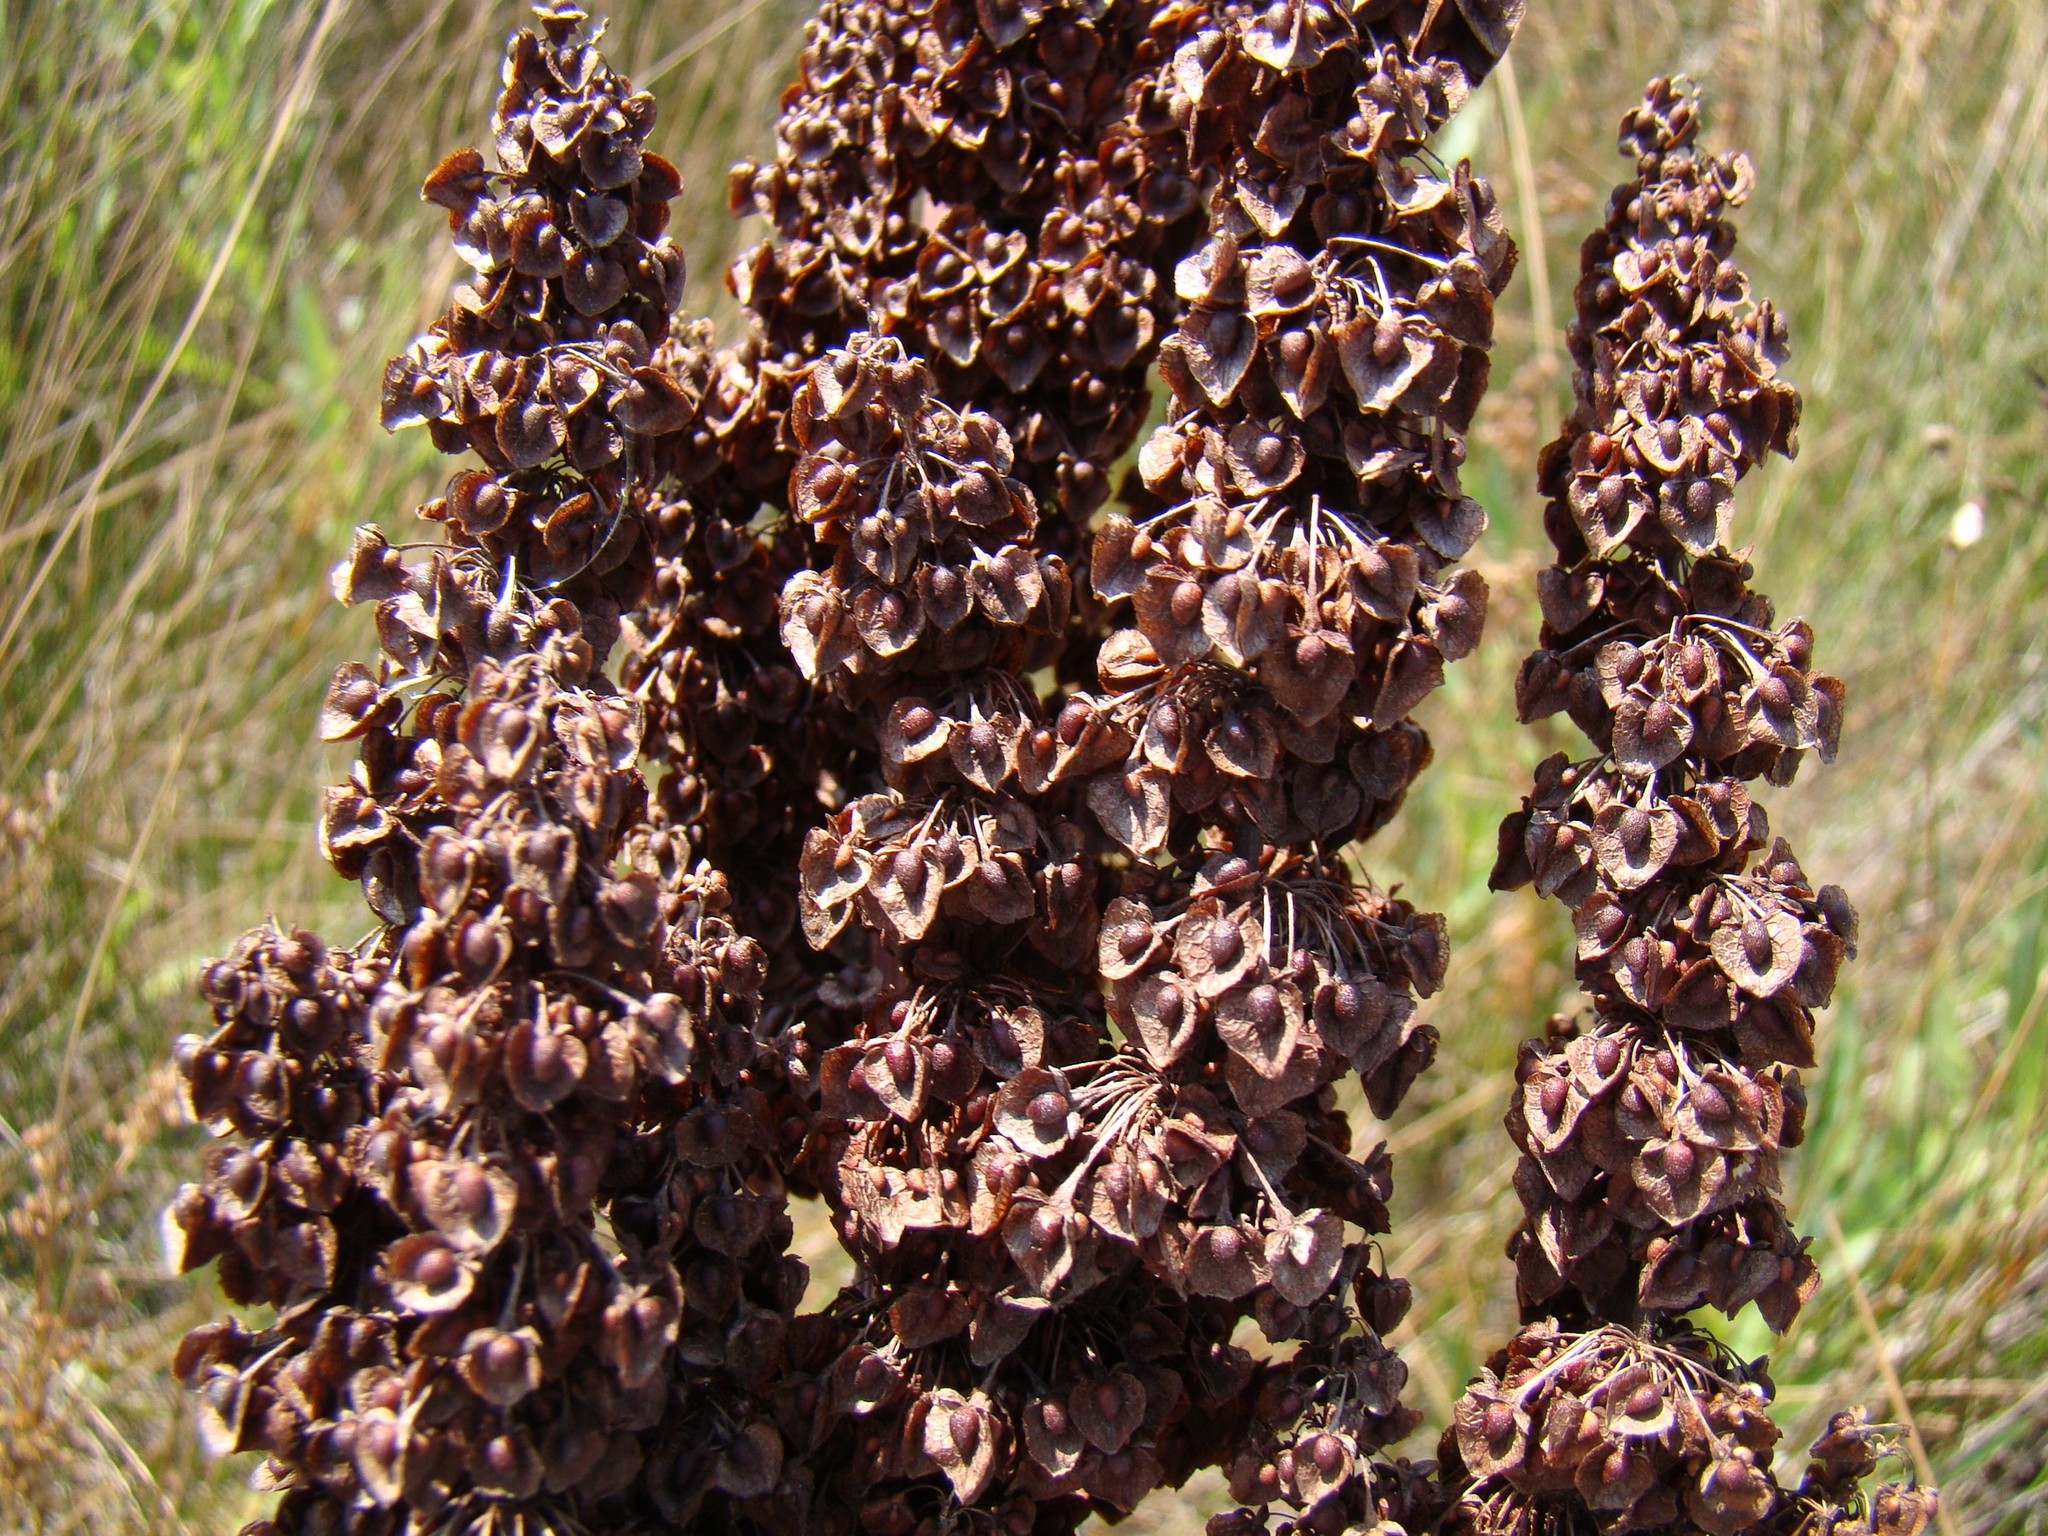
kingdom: Plantae
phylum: Tracheophyta
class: Magnoliopsida
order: Caryophyllales
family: Polygonaceae
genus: Rumex
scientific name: Rumex crispus
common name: Curled dock
